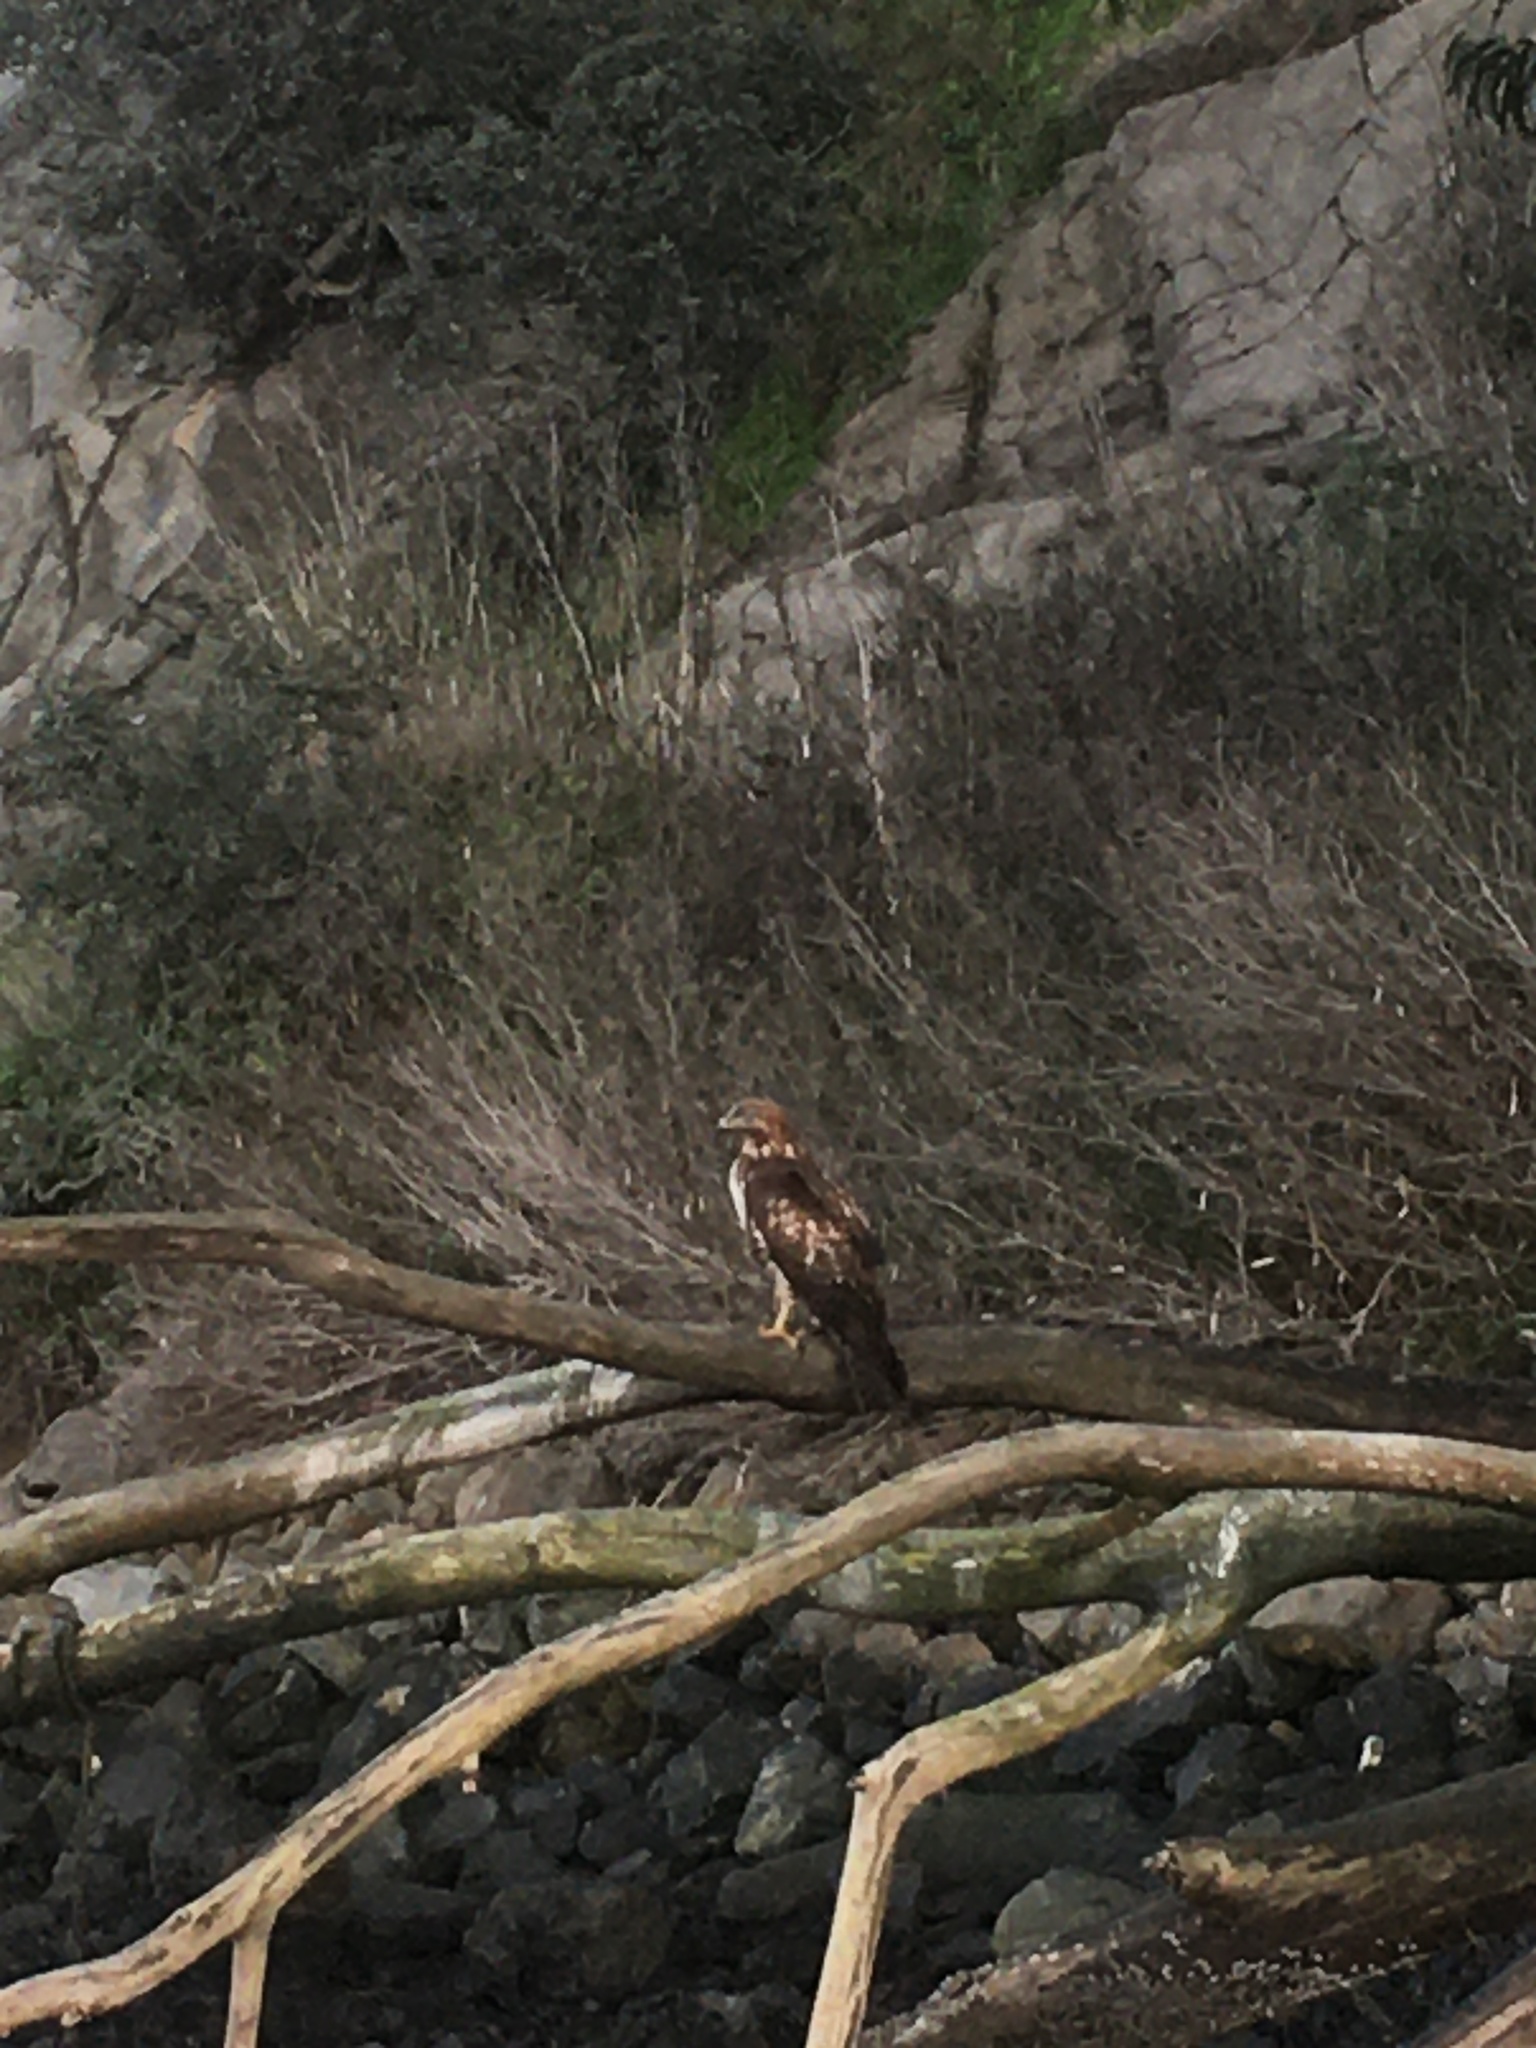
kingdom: Animalia
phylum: Chordata
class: Aves
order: Accipitriformes
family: Accipitridae
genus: Buteo
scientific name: Buteo jamaicensis
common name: Red-tailed hawk
